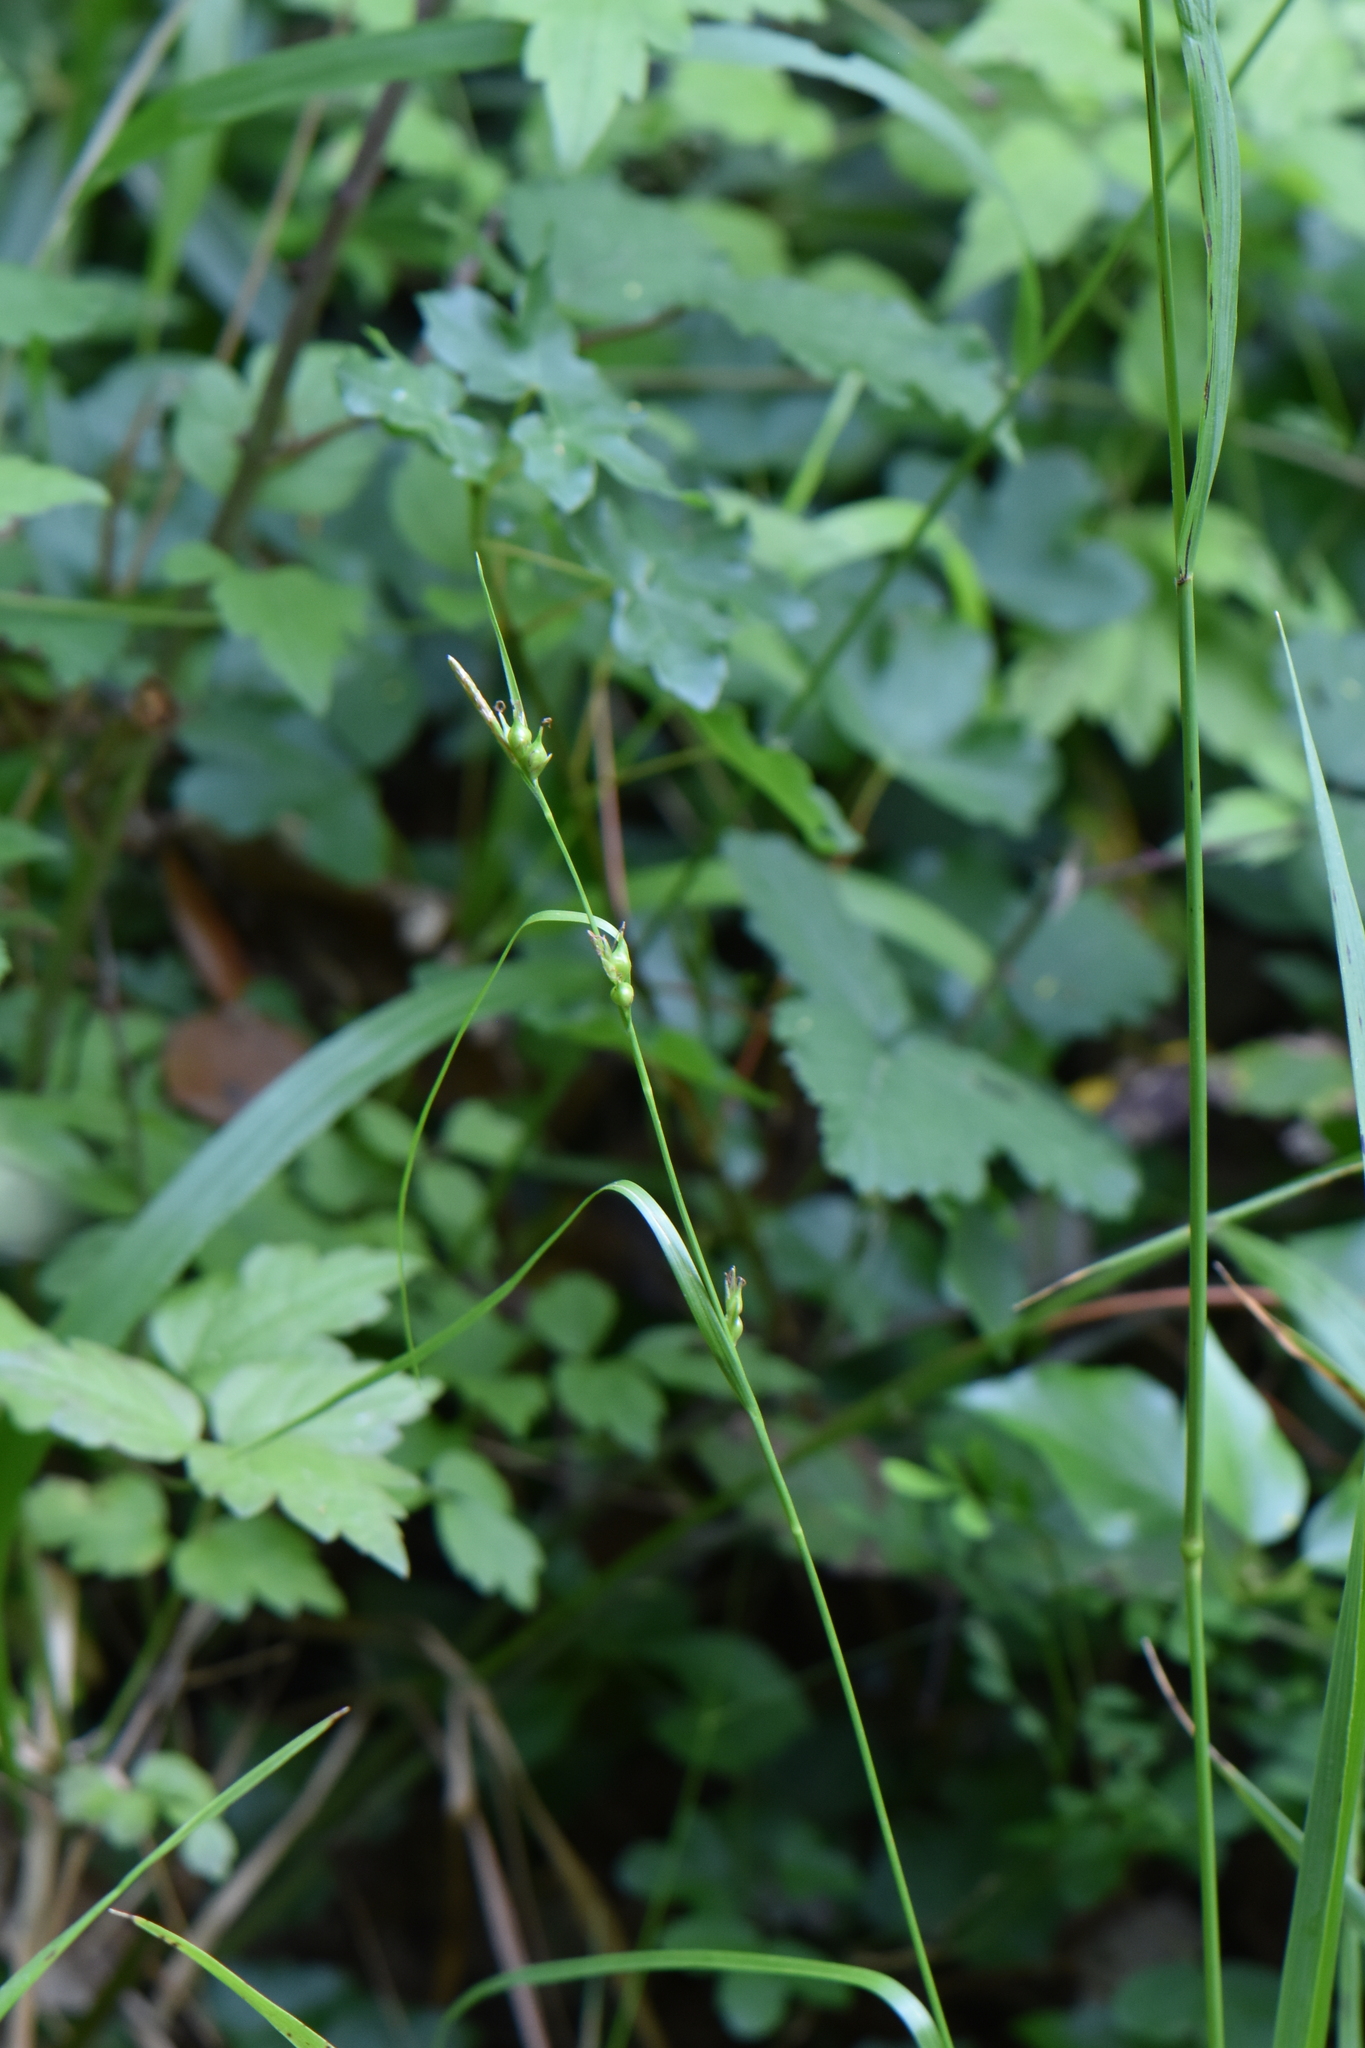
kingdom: Plantae
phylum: Tracheophyta
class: Liliopsida
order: Poales
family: Cyperaceae
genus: Carex
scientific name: Carex depauperata
